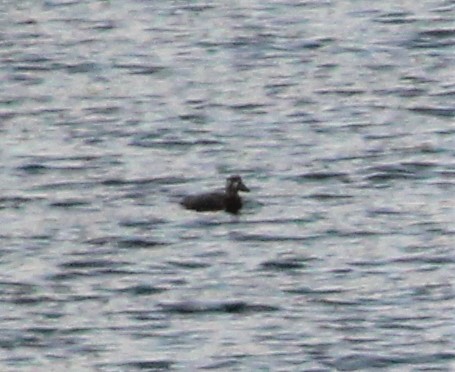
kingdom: Animalia
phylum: Chordata
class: Aves
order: Anseriformes
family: Anatidae
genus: Melanitta
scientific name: Melanitta perspicillata
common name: Surf scoter
